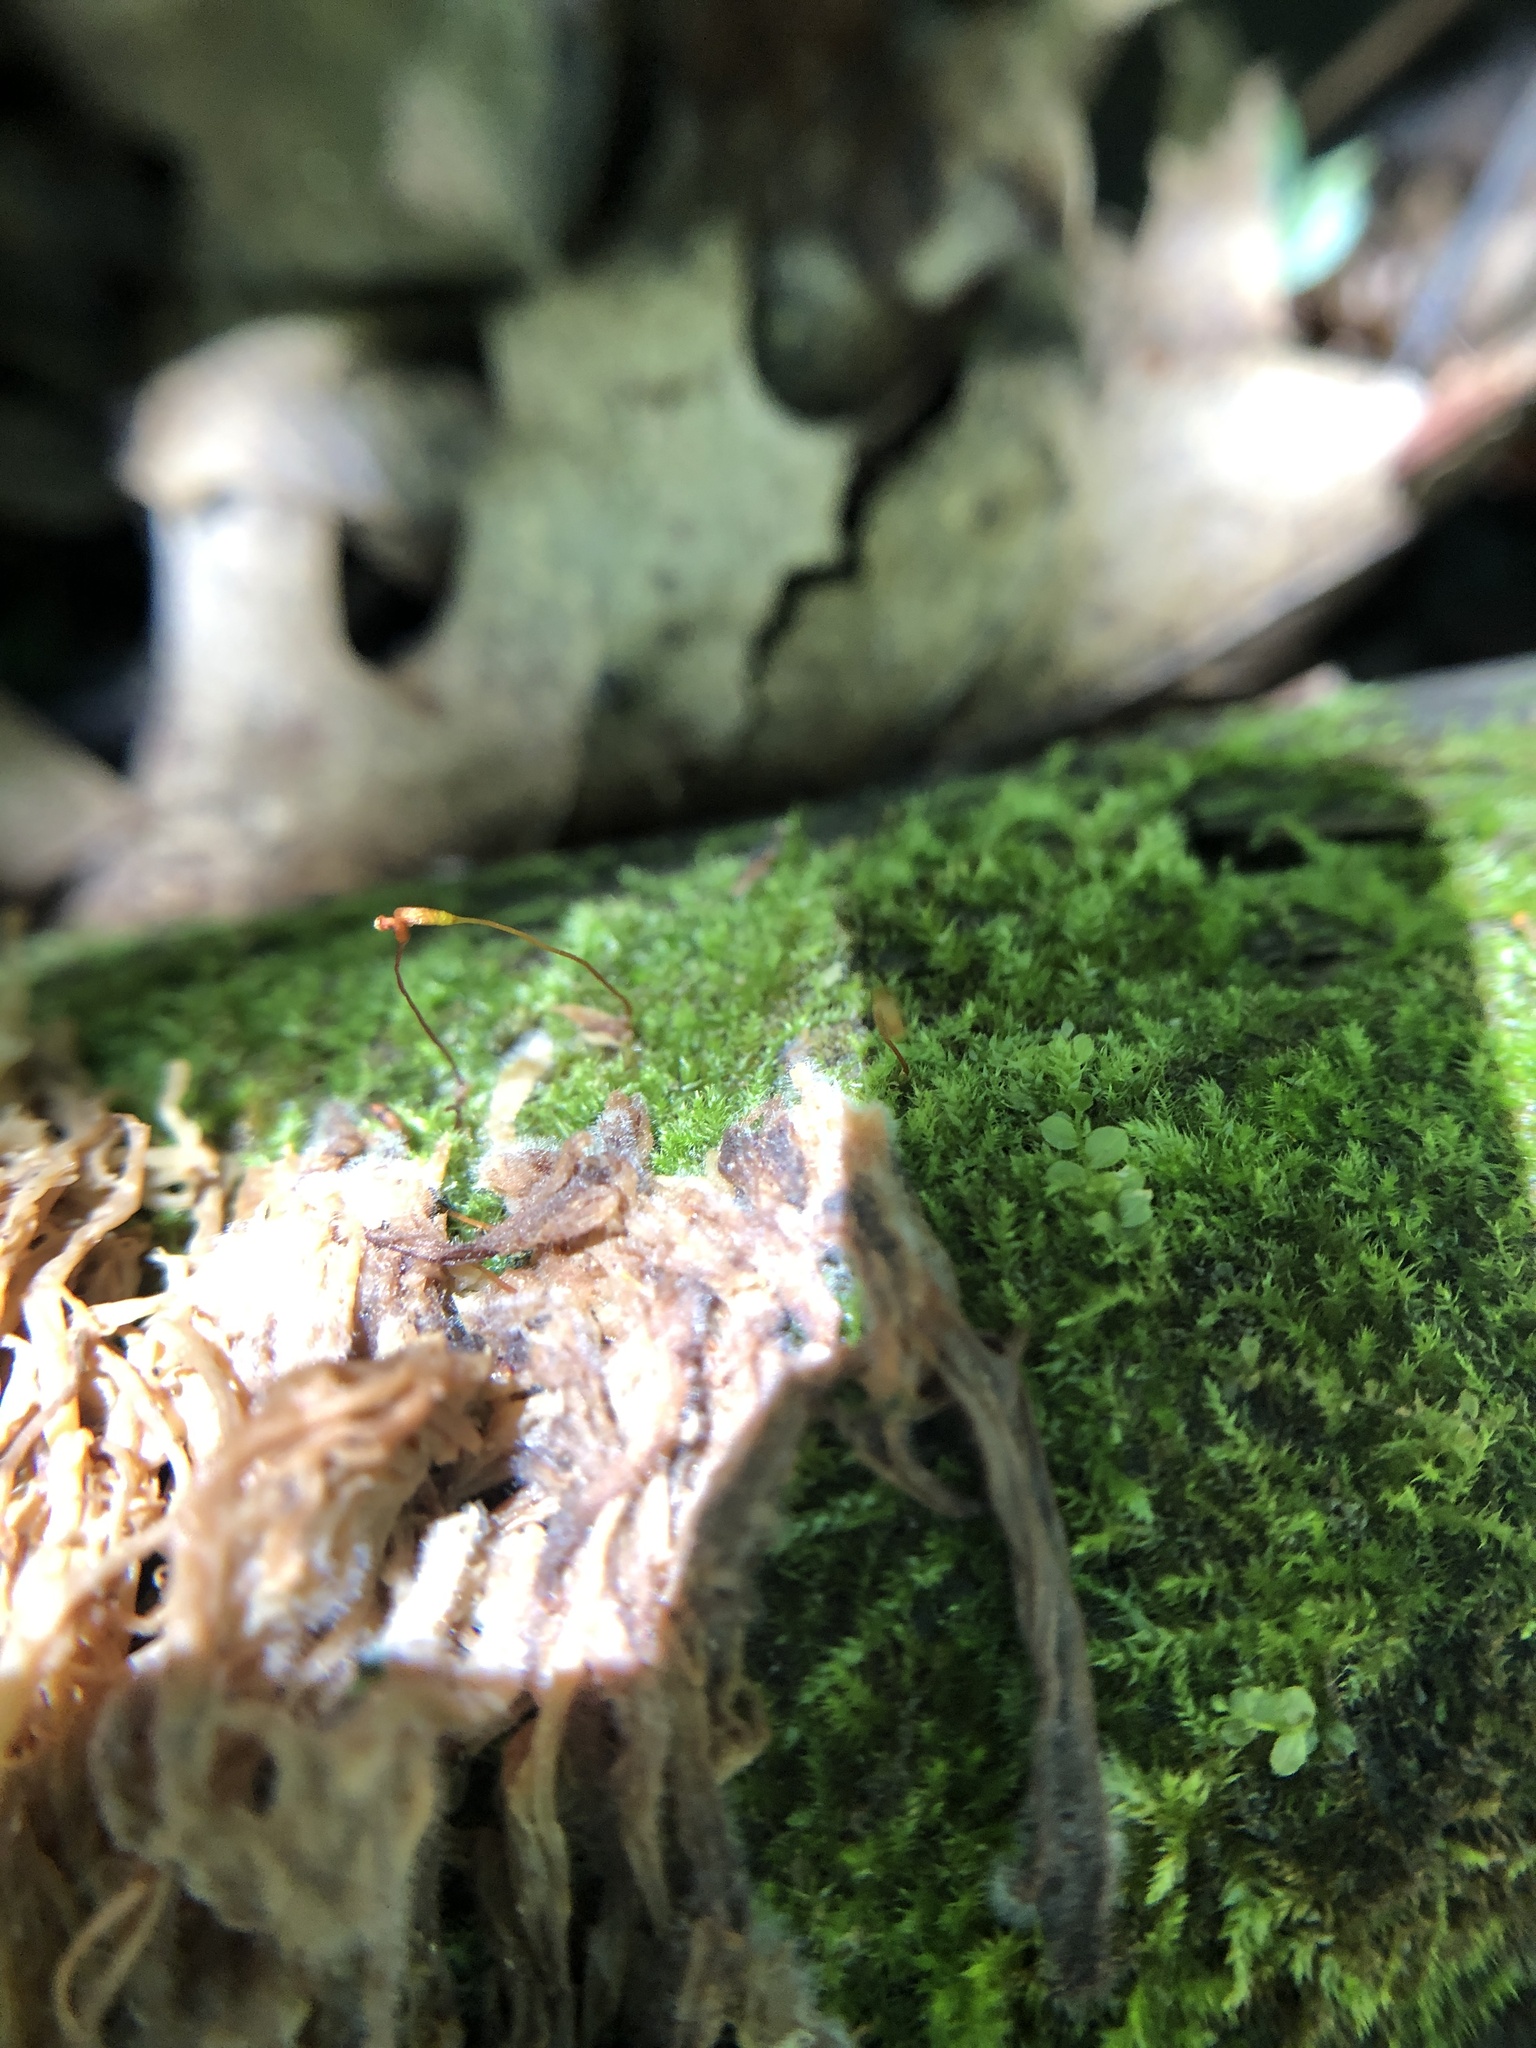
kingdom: Fungi
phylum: Basidiomycota
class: Agaricomycetes
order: Russulales
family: Auriscalpiaceae
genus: Artomyces
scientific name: Artomyces pyxidatus
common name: Crown-tipped coral fungus
